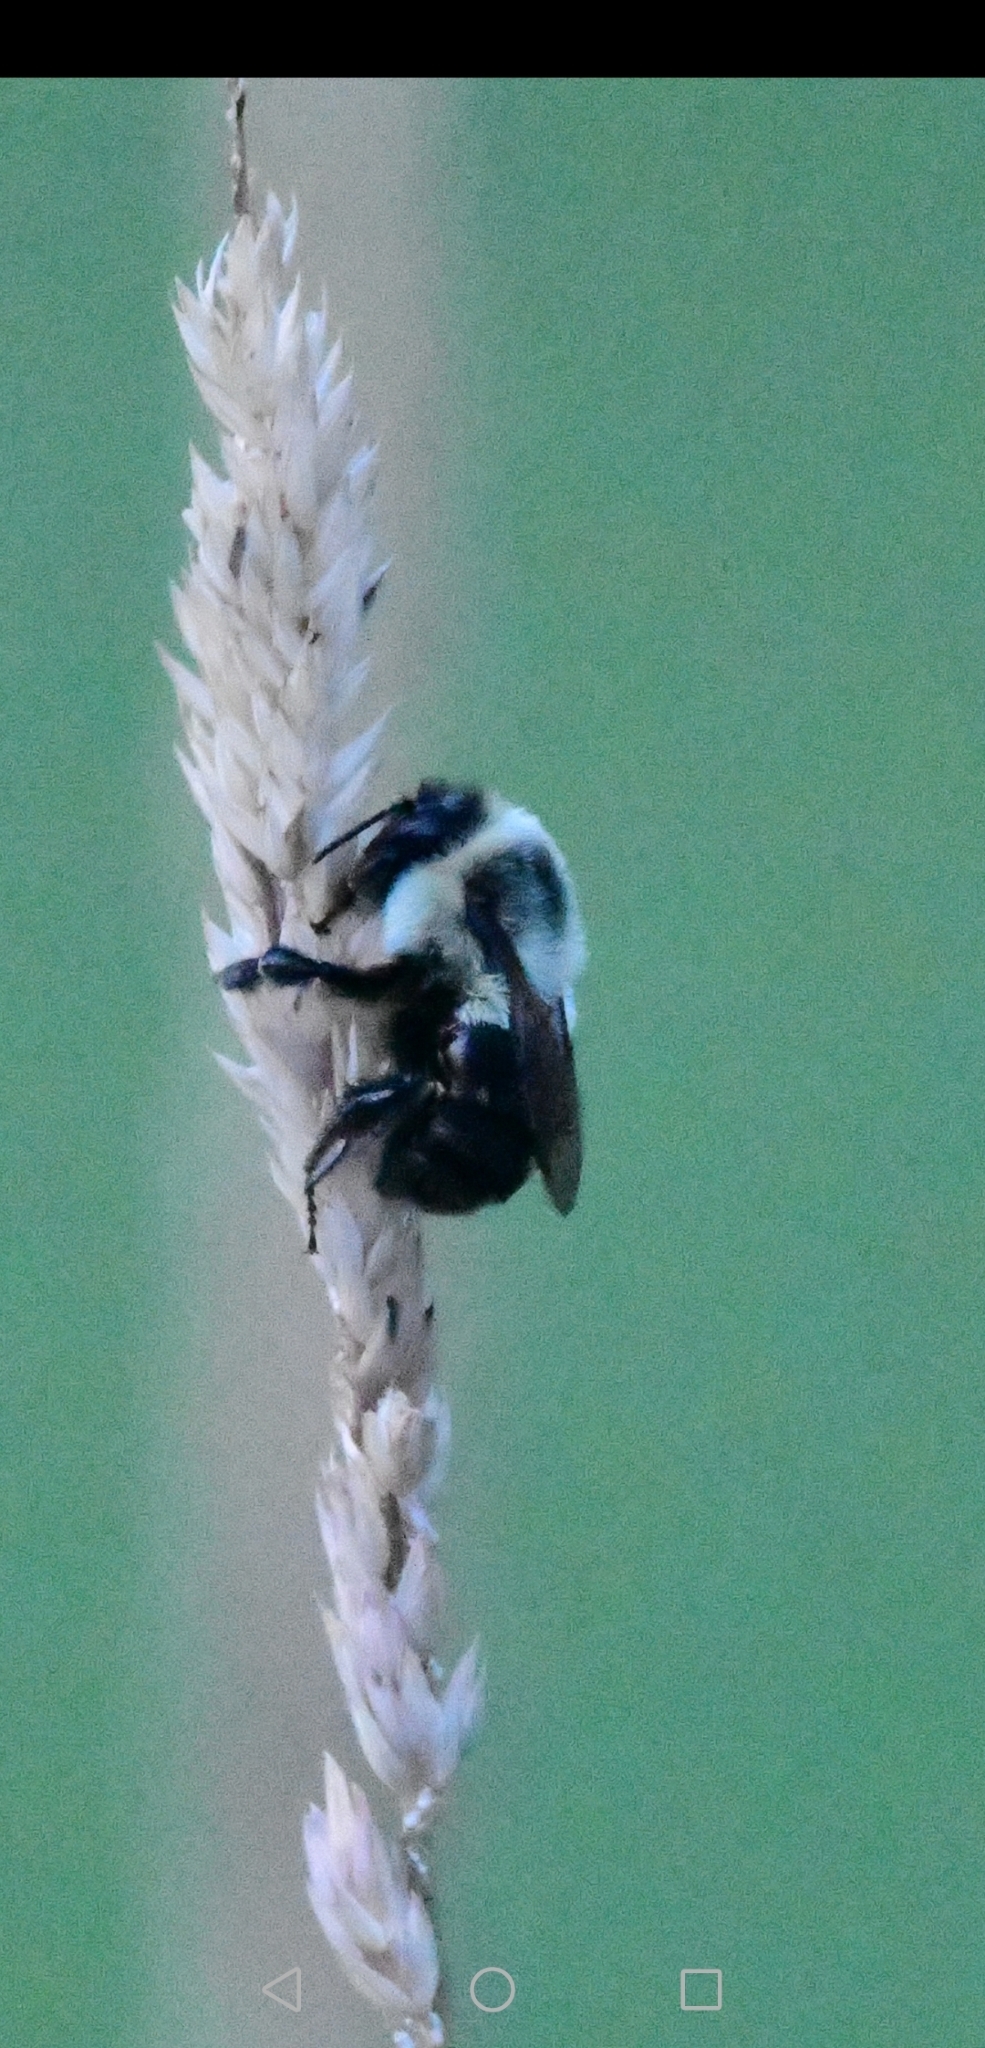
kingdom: Animalia
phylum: Arthropoda
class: Insecta
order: Hymenoptera
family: Apidae
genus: Bombus
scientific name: Bombus impatiens
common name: Common eastern bumble bee
